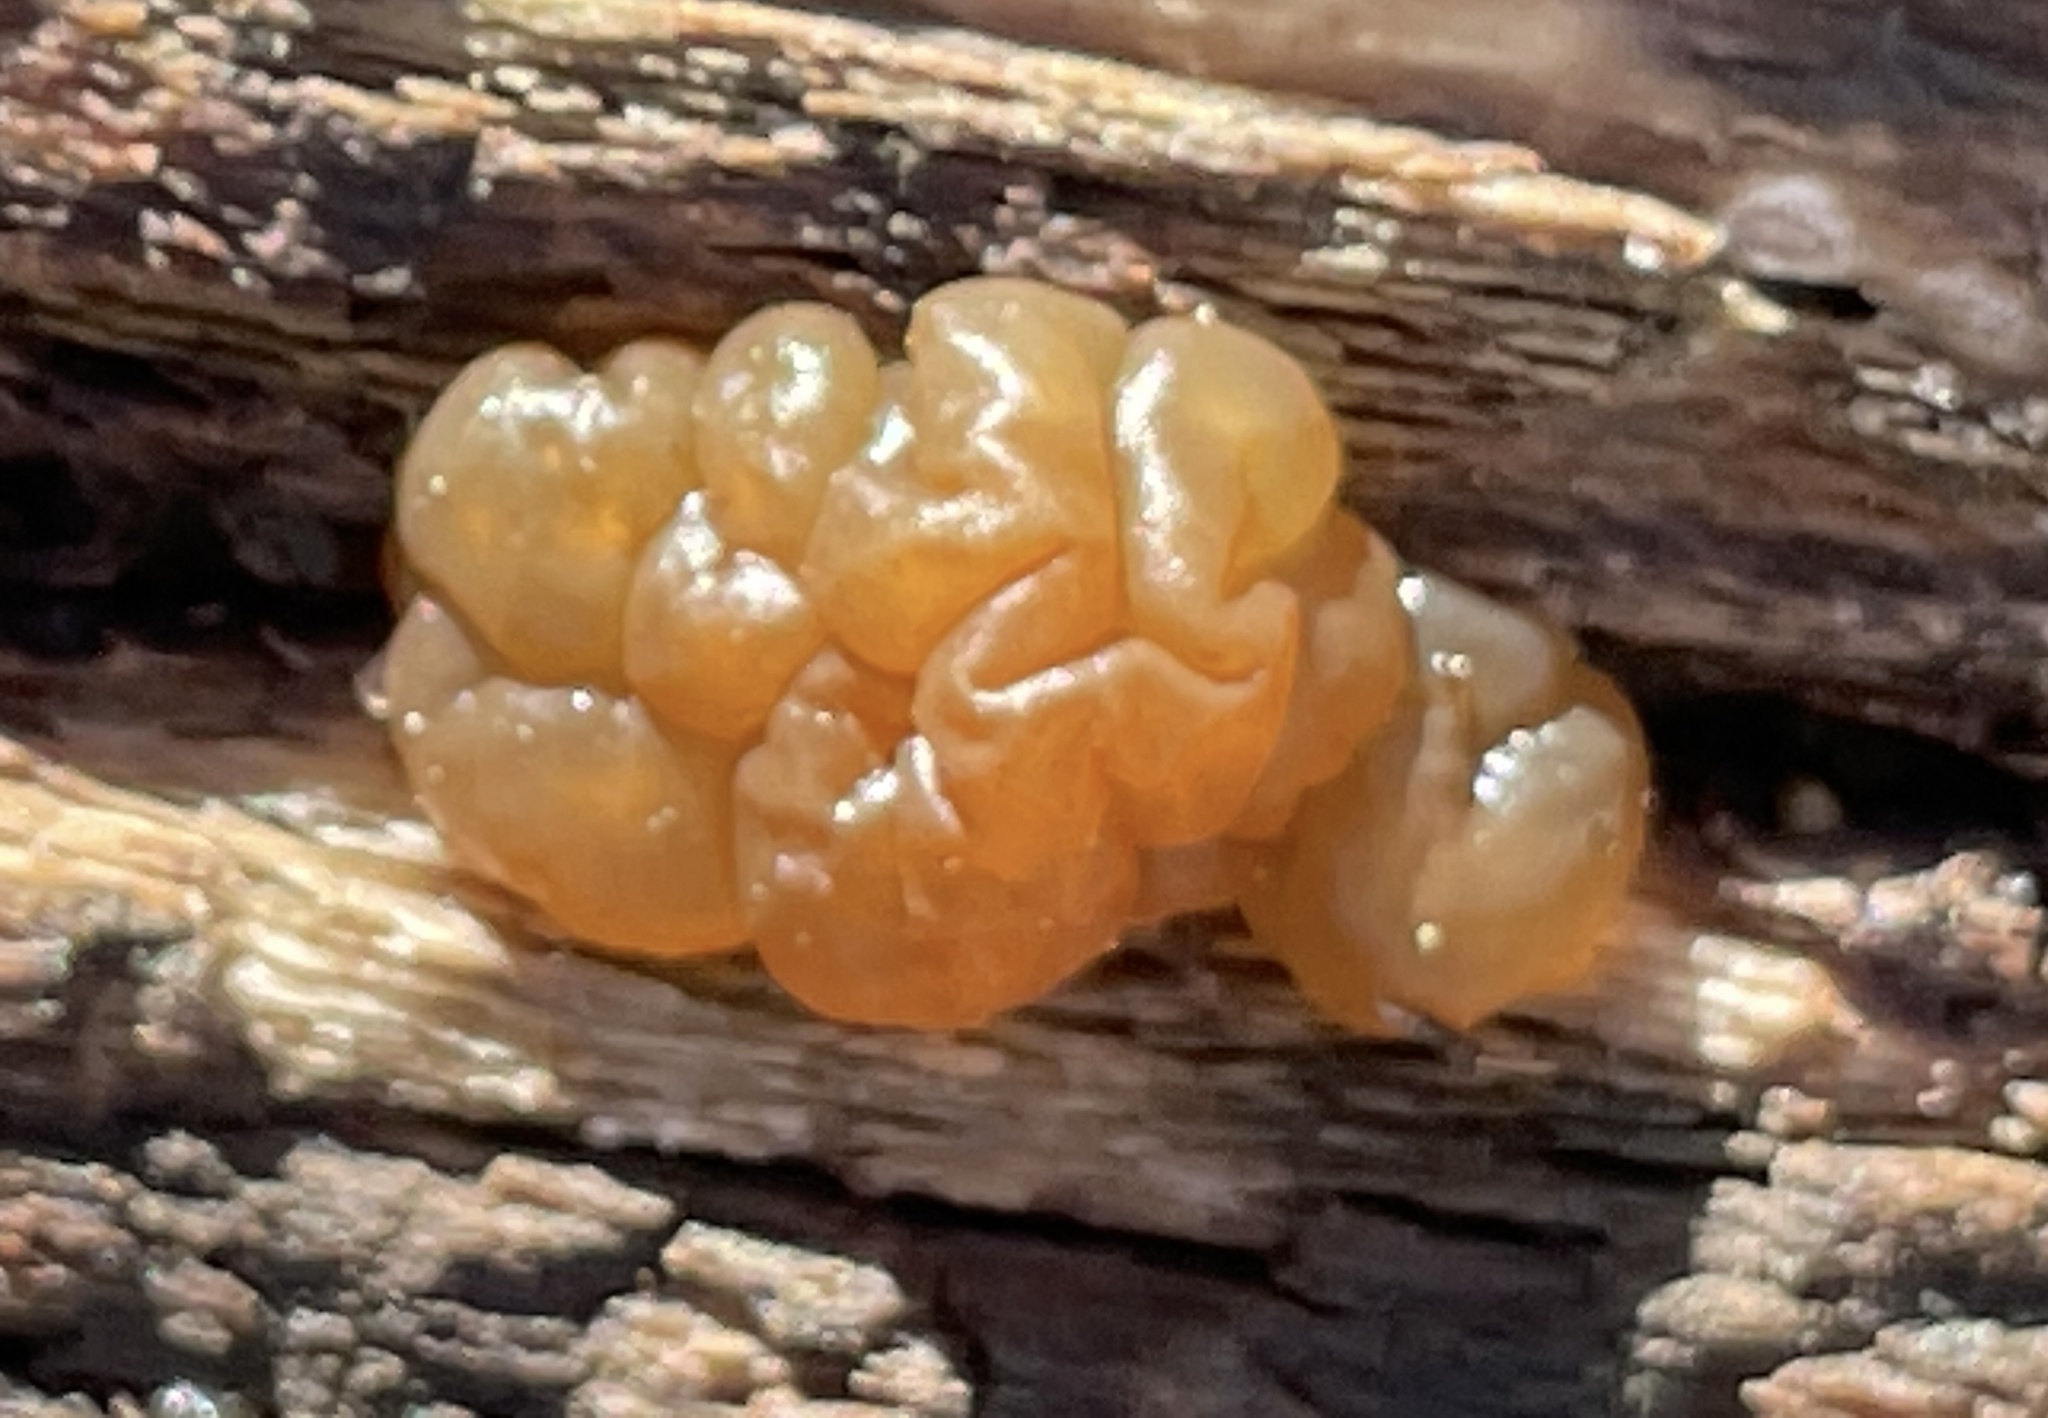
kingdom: Fungi
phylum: Basidiomycota
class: Agaricomycetes
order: Auriculariales
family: Hyaloriaceae
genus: Myxarium
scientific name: Myxarium nucleatum
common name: Crystal brain fungus
